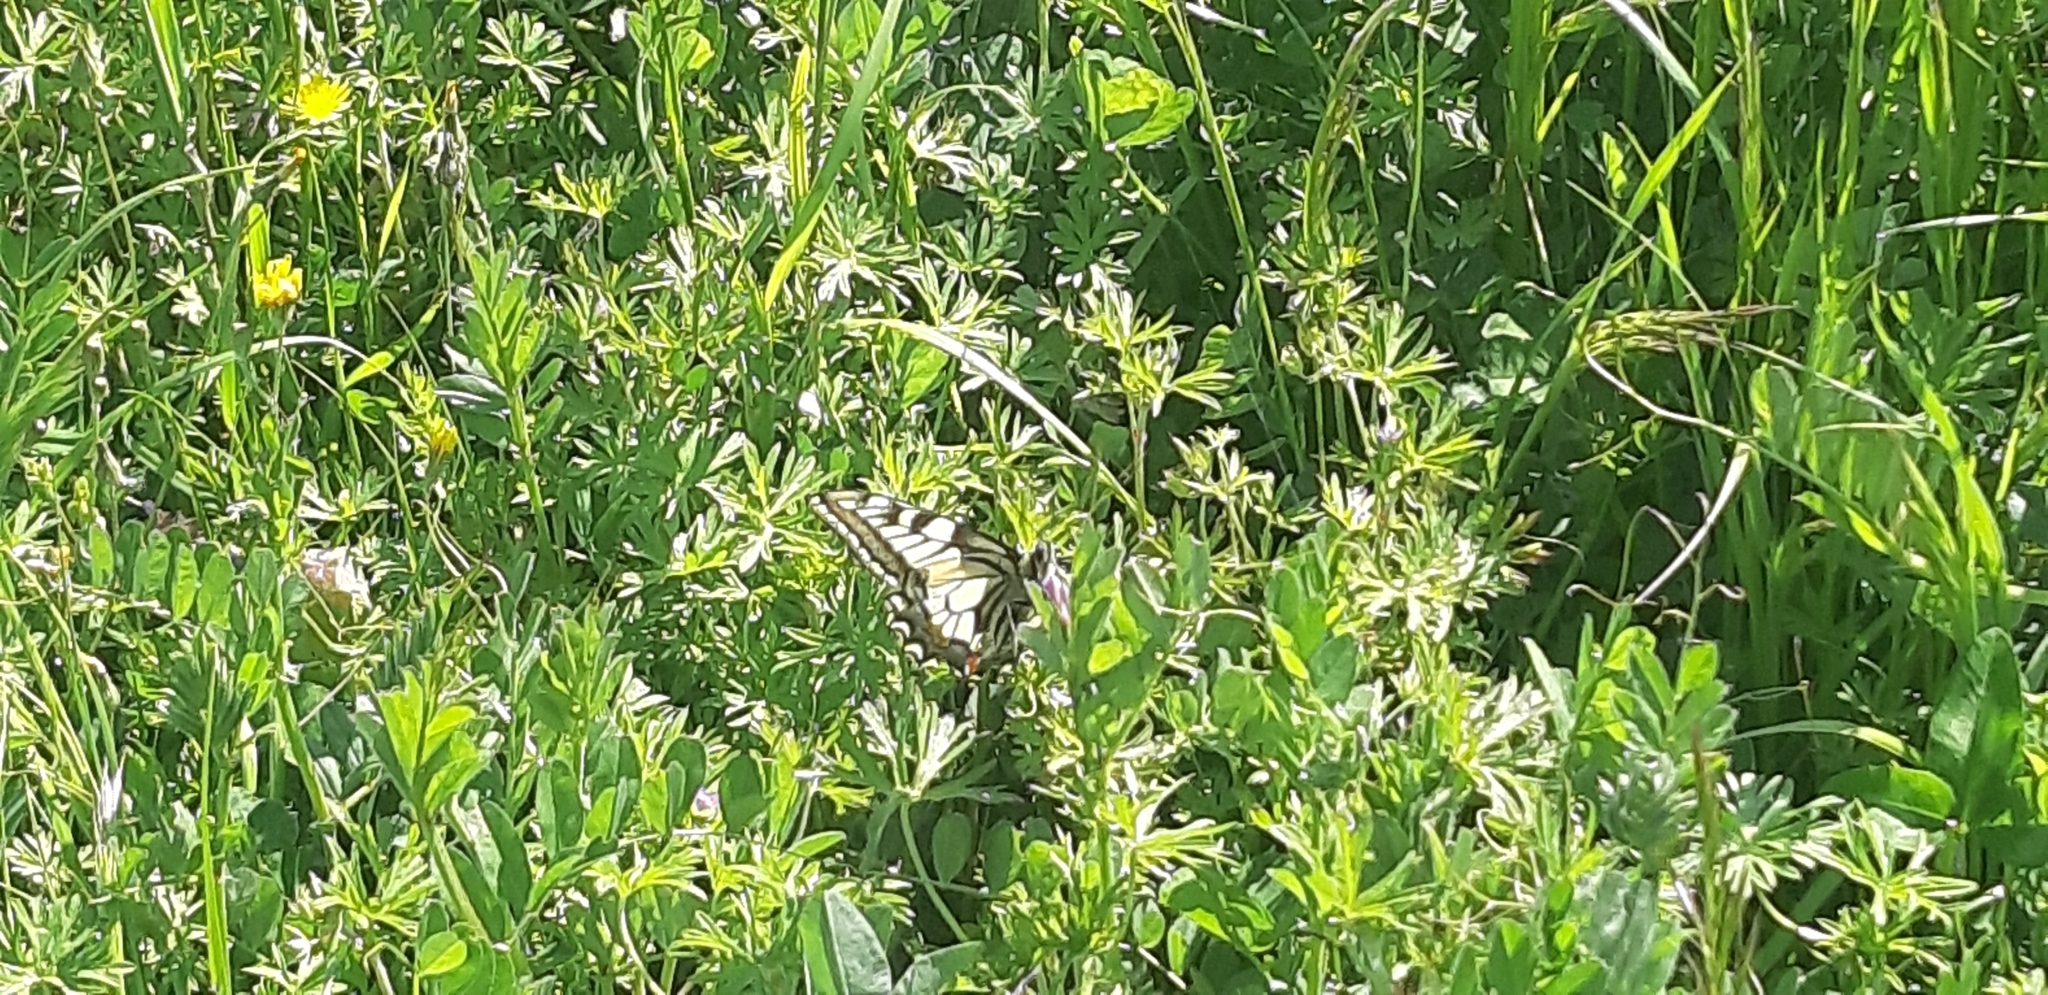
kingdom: Animalia
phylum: Arthropoda
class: Insecta
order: Lepidoptera
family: Papilionidae
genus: Papilio
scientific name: Papilio machaon
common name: Swallowtail
